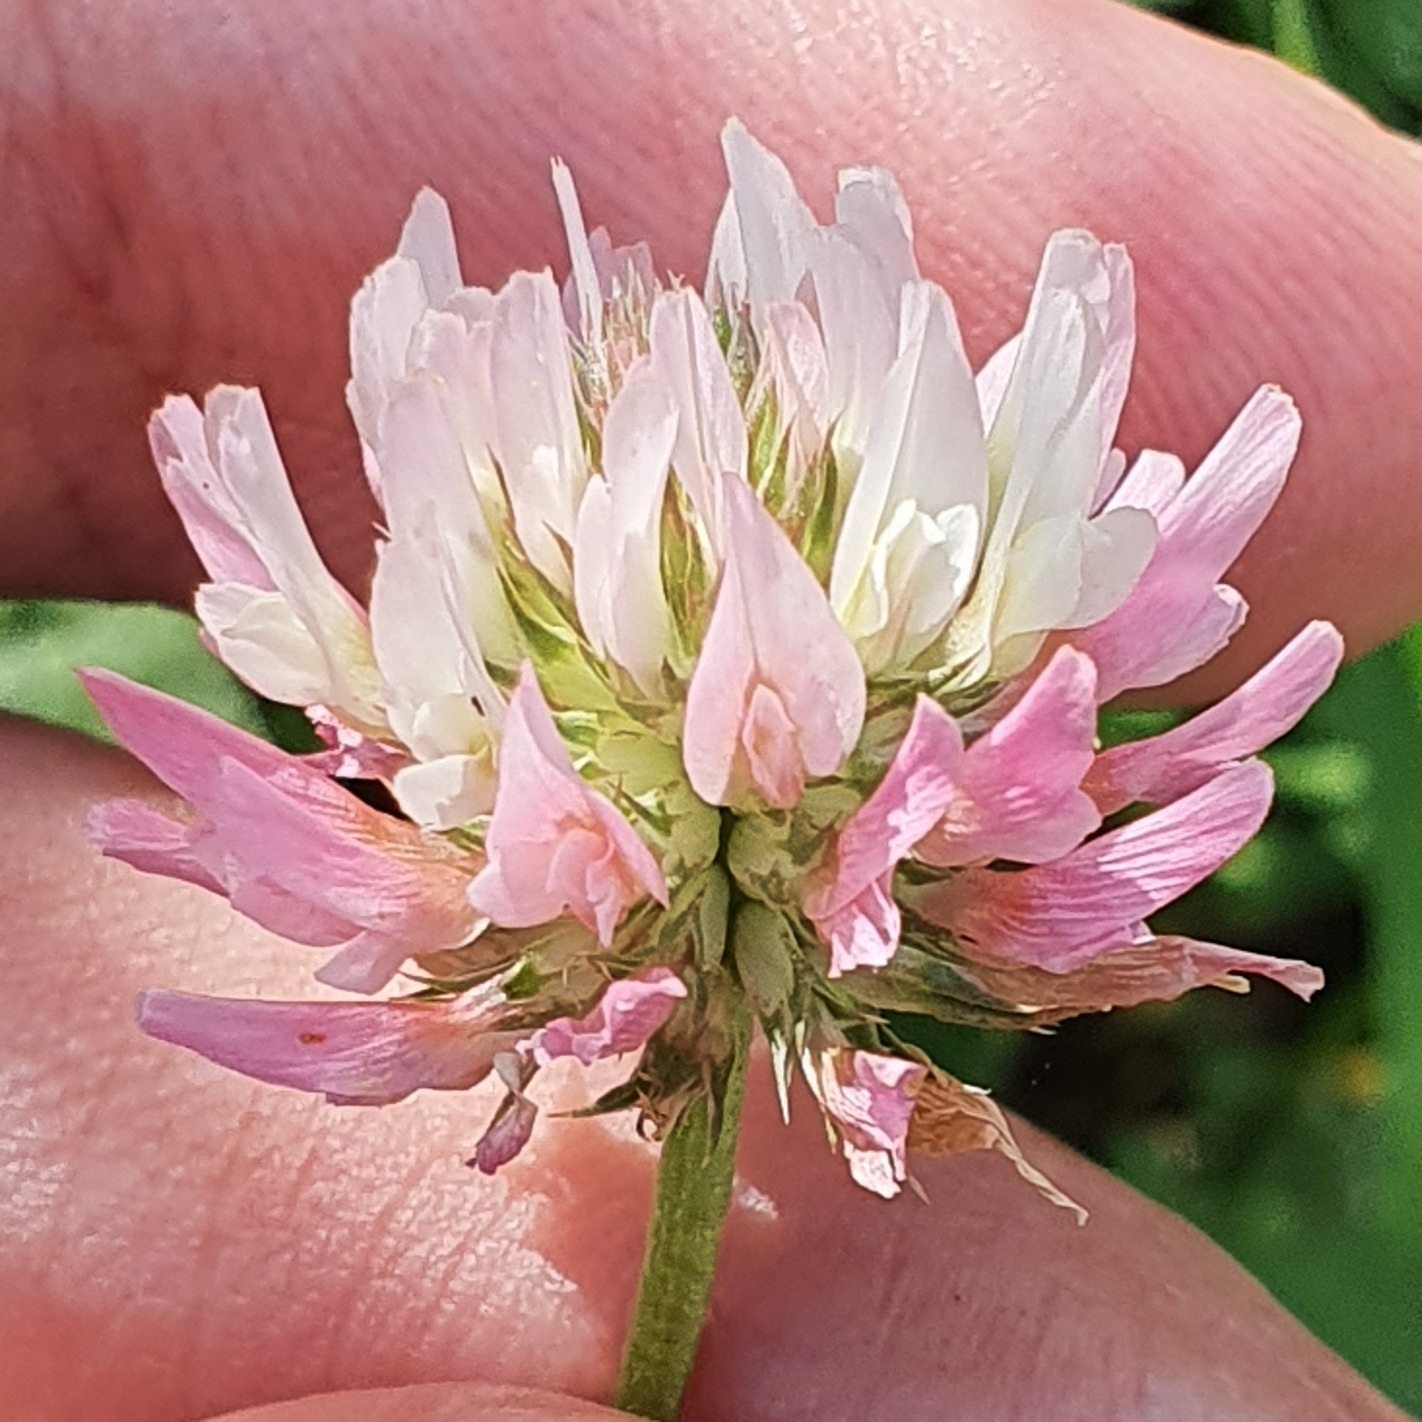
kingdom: Plantae
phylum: Tracheophyta
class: Magnoliopsida
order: Fabales
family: Fabaceae
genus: Trifolium
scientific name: Trifolium isthmocarpum
